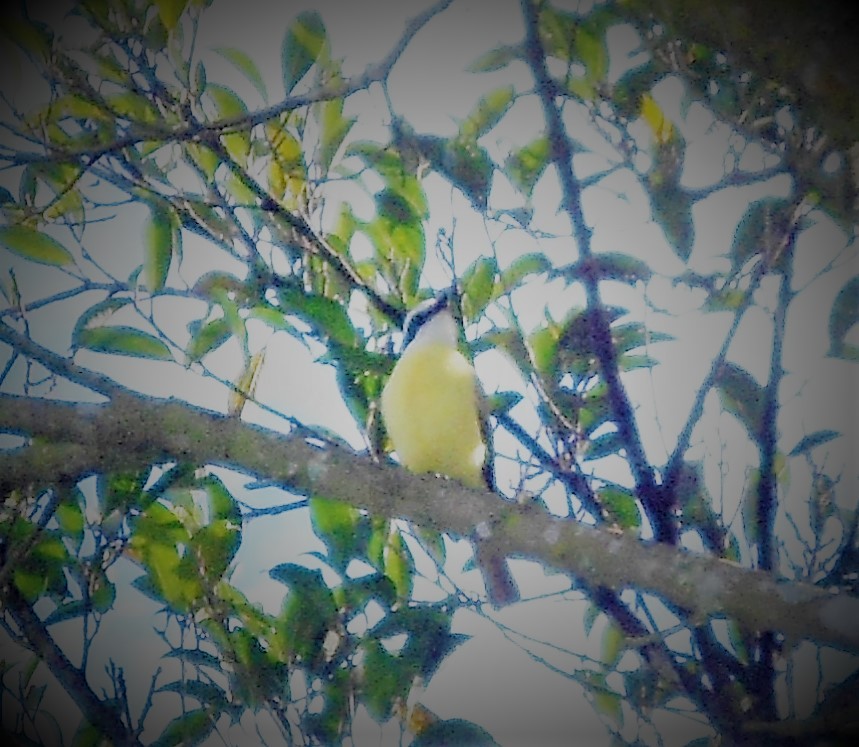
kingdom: Animalia
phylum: Chordata
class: Aves
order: Passeriformes
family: Tyrannidae
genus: Myiozetetes
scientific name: Myiozetetes similis
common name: Social flycatcher
